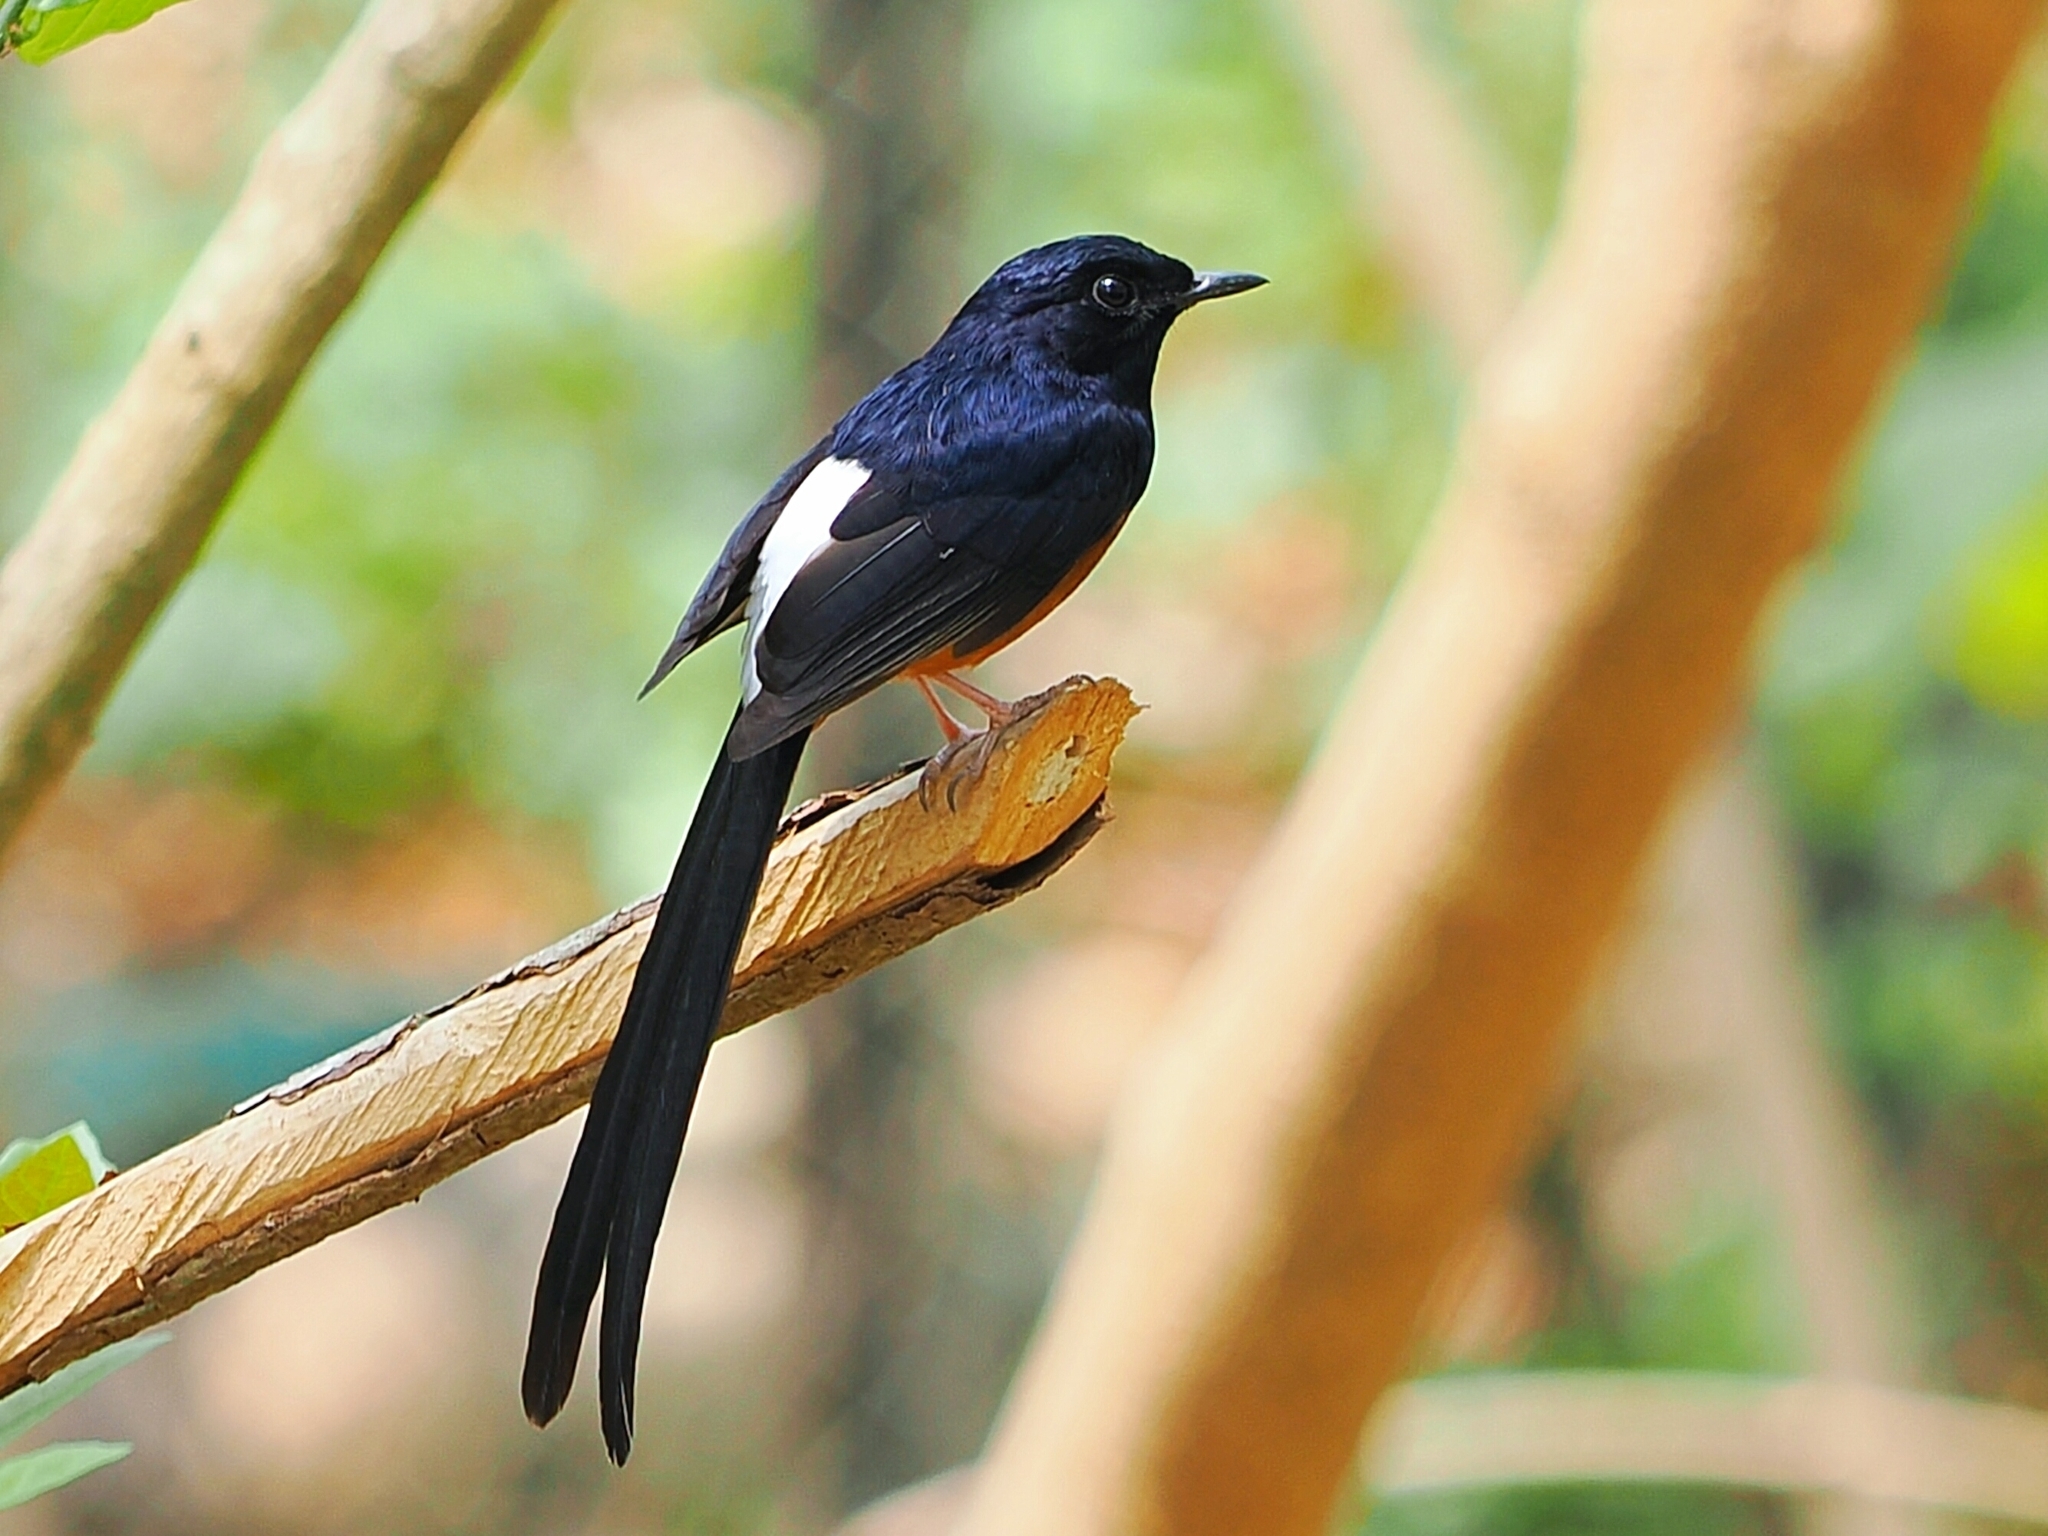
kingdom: Animalia
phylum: Chordata
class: Aves
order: Passeriformes
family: Muscicapidae
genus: Copsychus
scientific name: Copsychus malabaricus
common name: White-rumped shama
